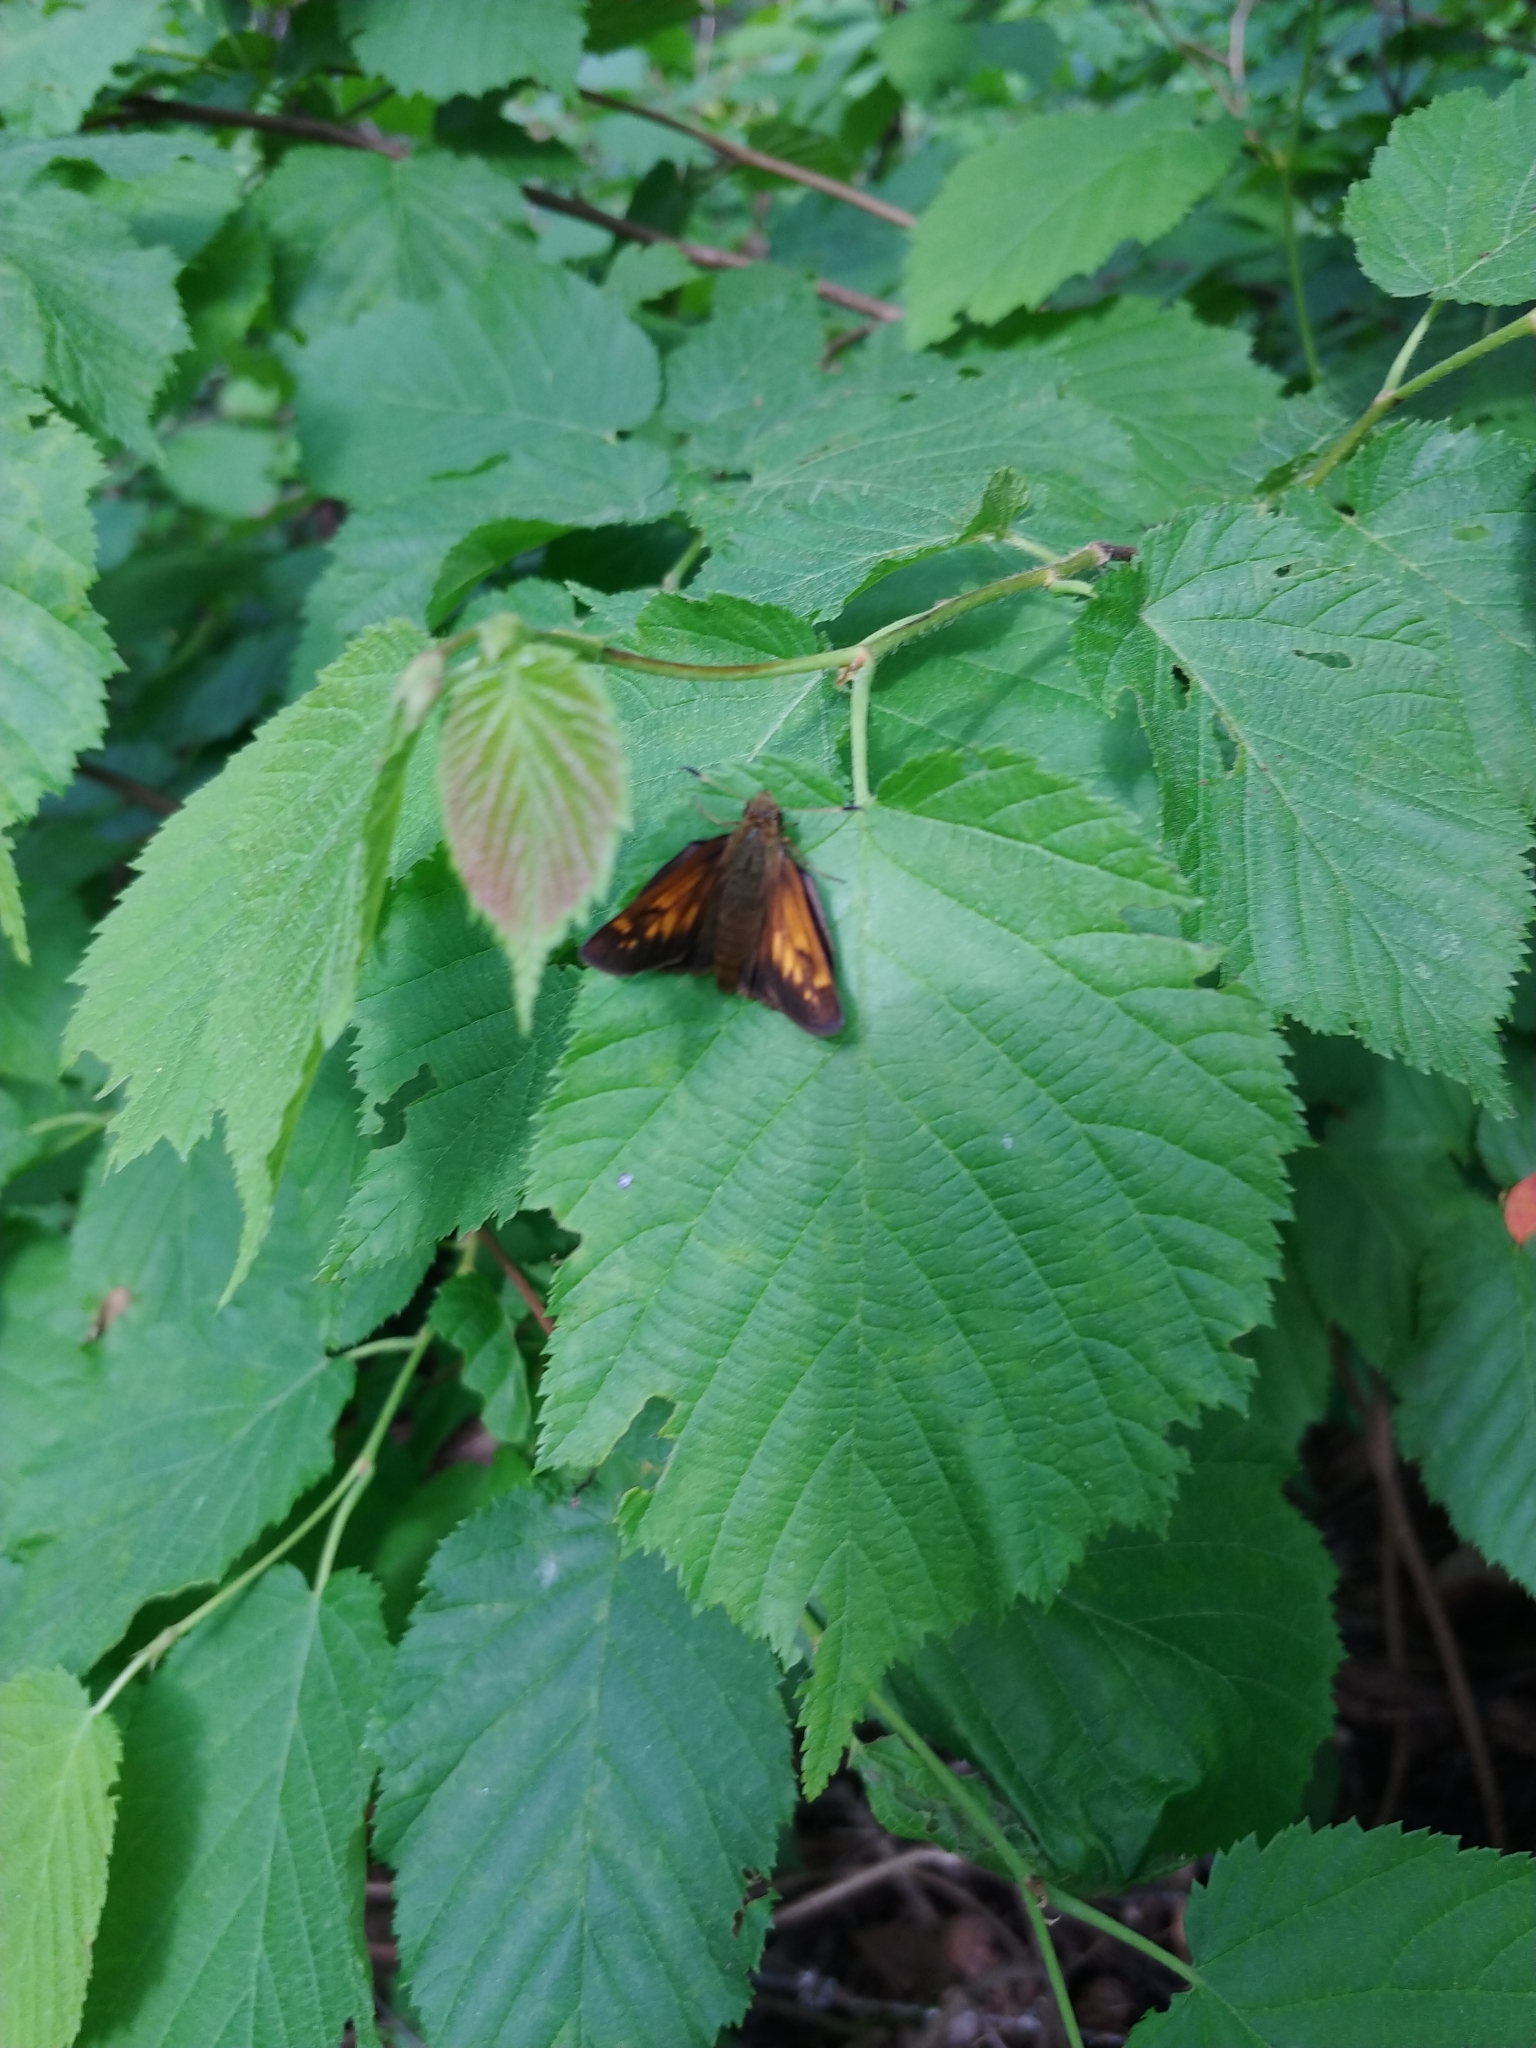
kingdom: Animalia
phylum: Arthropoda
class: Insecta
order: Lepidoptera
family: Hesperiidae
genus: Lon
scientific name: Lon hobomok
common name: Hobomok skipper
